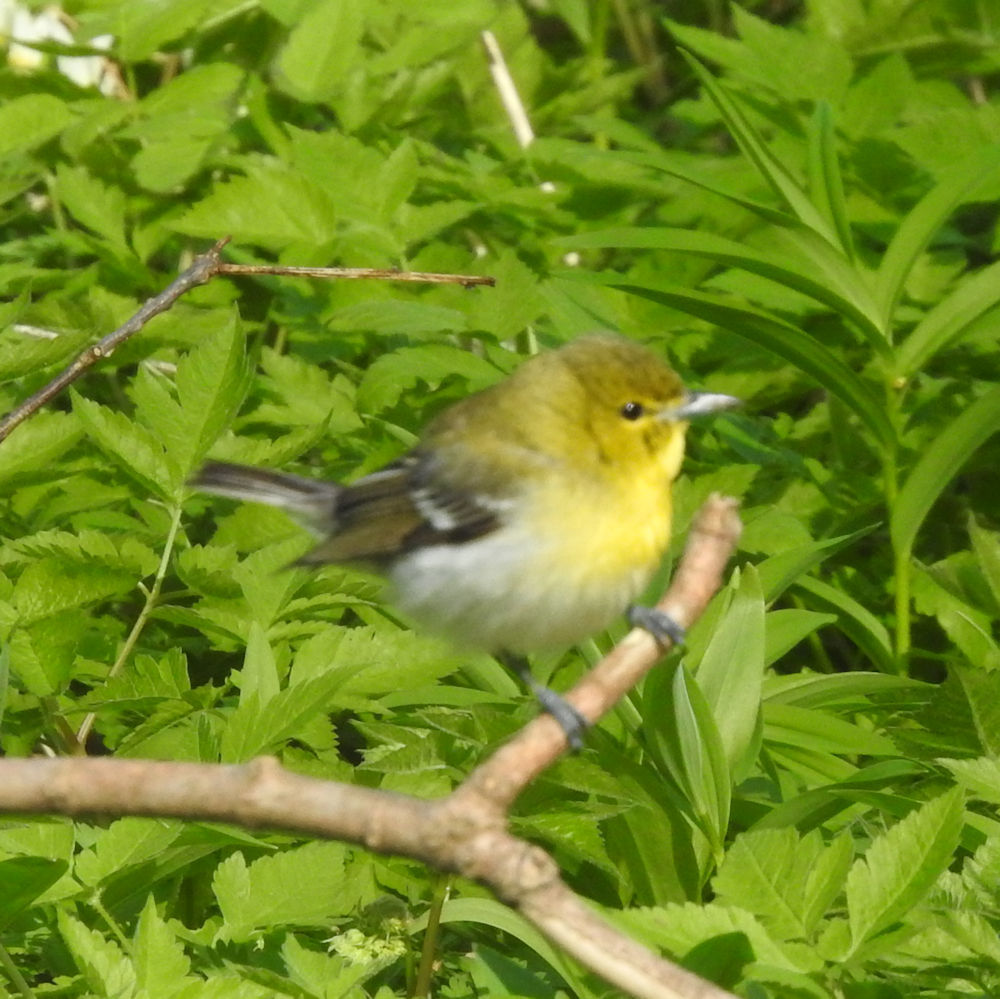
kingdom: Animalia
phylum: Chordata
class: Aves
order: Passeriformes
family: Vireonidae
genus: Vireo
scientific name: Vireo flavifrons
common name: Yellow-throated vireo
